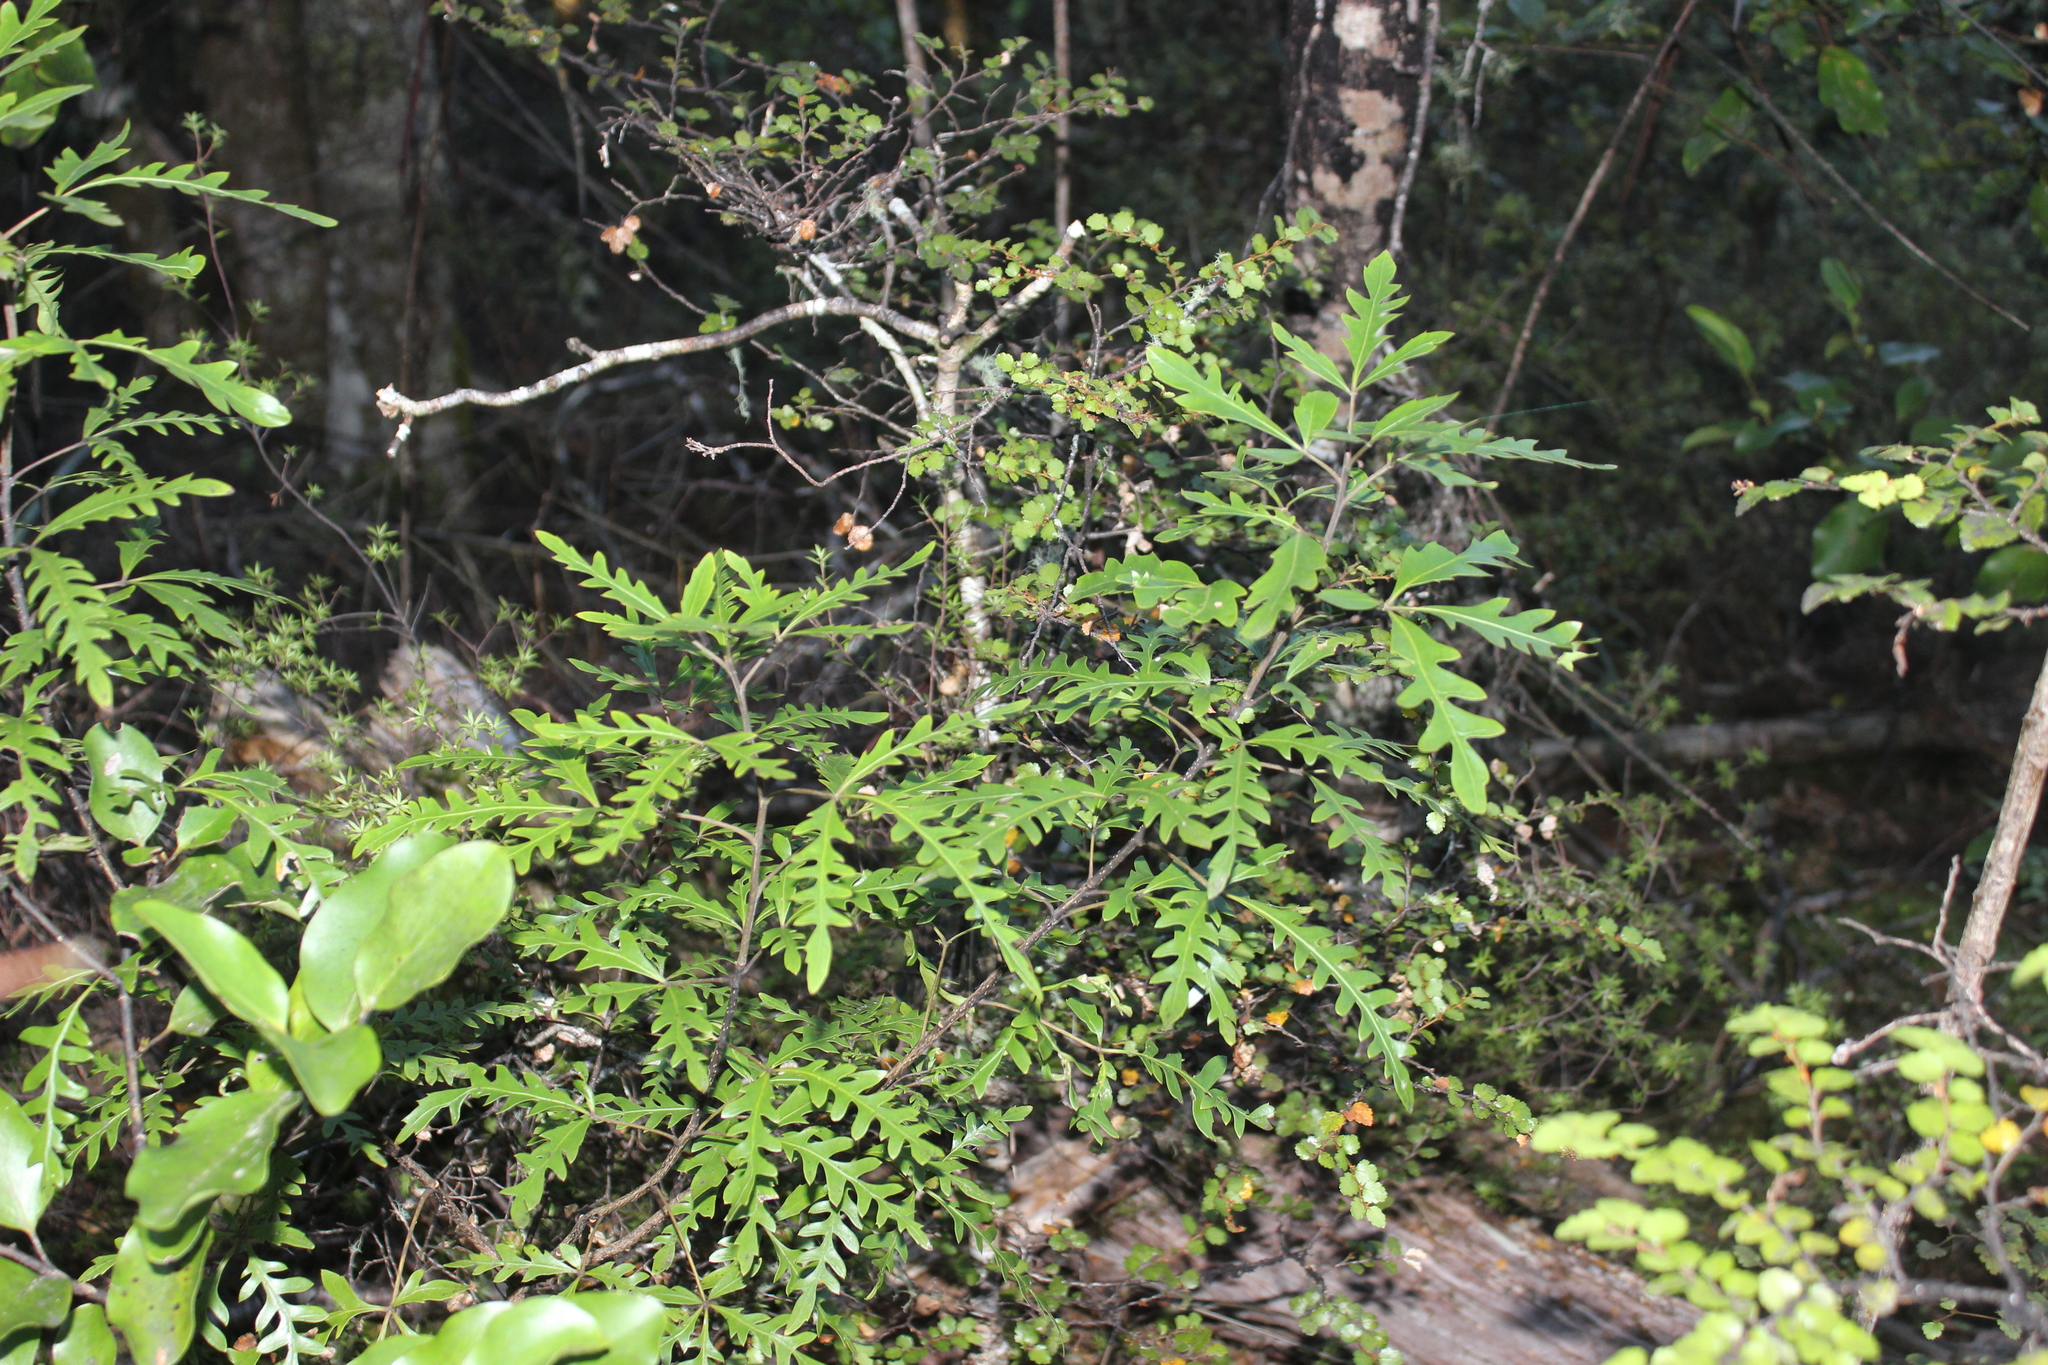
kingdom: Plantae
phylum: Tracheophyta
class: Magnoliopsida
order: Apiales
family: Araliaceae
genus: Raukaua
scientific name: Raukaua simplex
